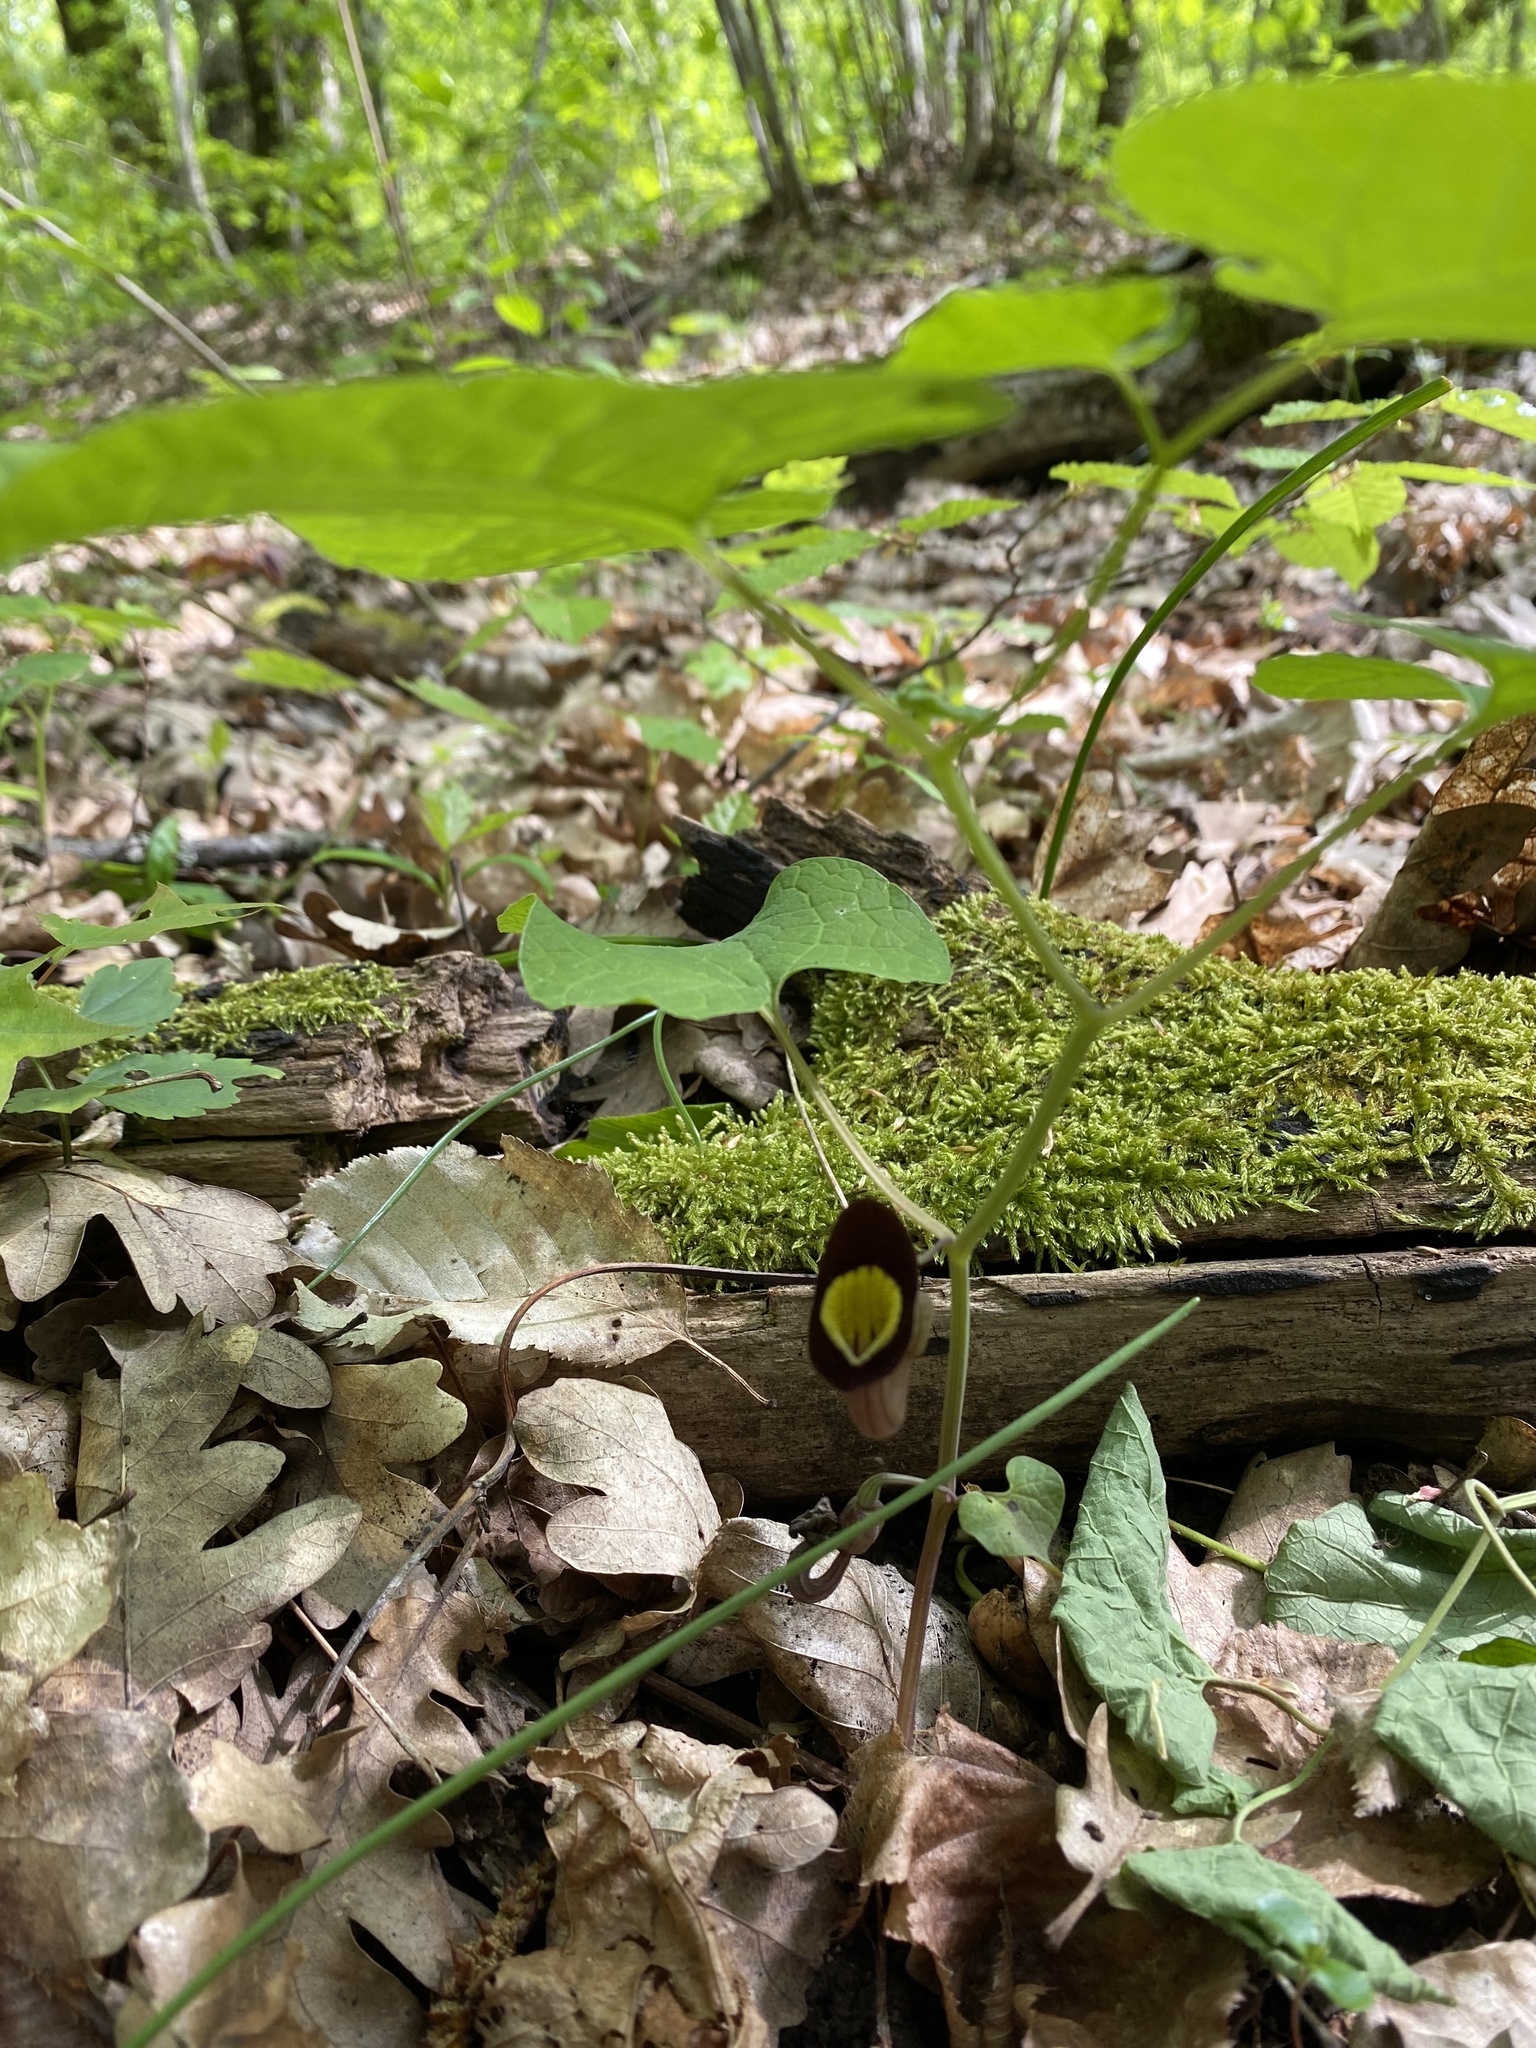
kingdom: Plantae
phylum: Tracheophyta
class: Magnoliopsida
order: Piperales
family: Aristolochiaceae
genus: Aristolochia
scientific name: Aristolochia steupii
